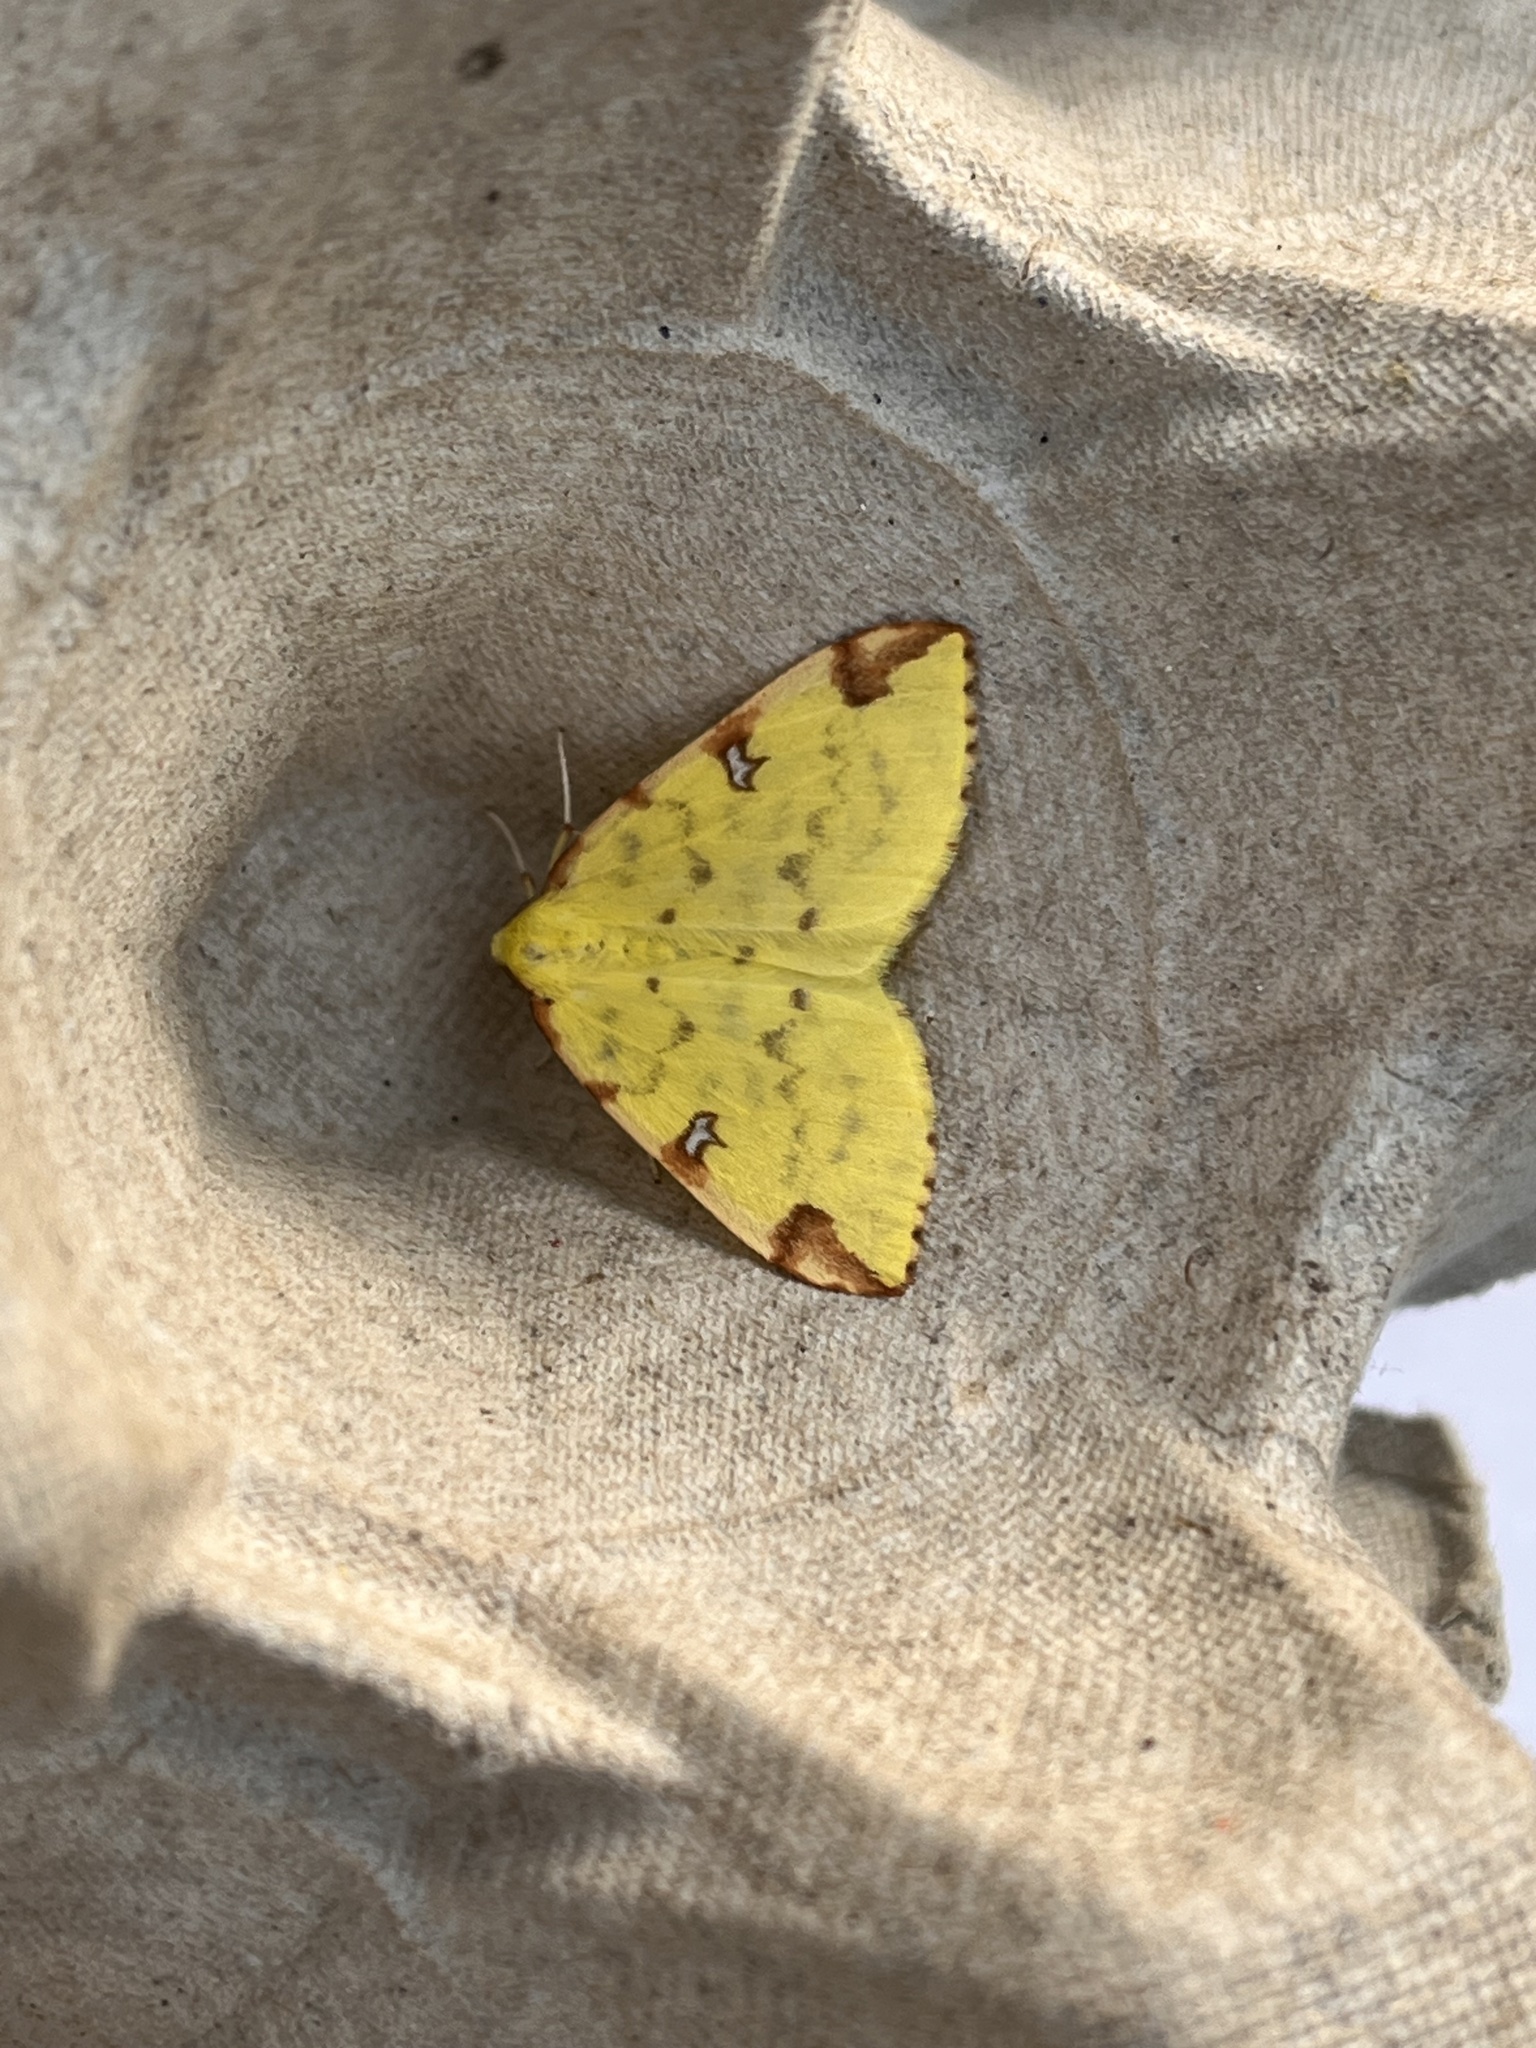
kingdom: Animalia
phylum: Arthropoda
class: Insecta
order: Lepidoptera
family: Geometridae
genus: Opisthograptis
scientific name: Opisthograptis luteolata
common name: Brimstone moth
